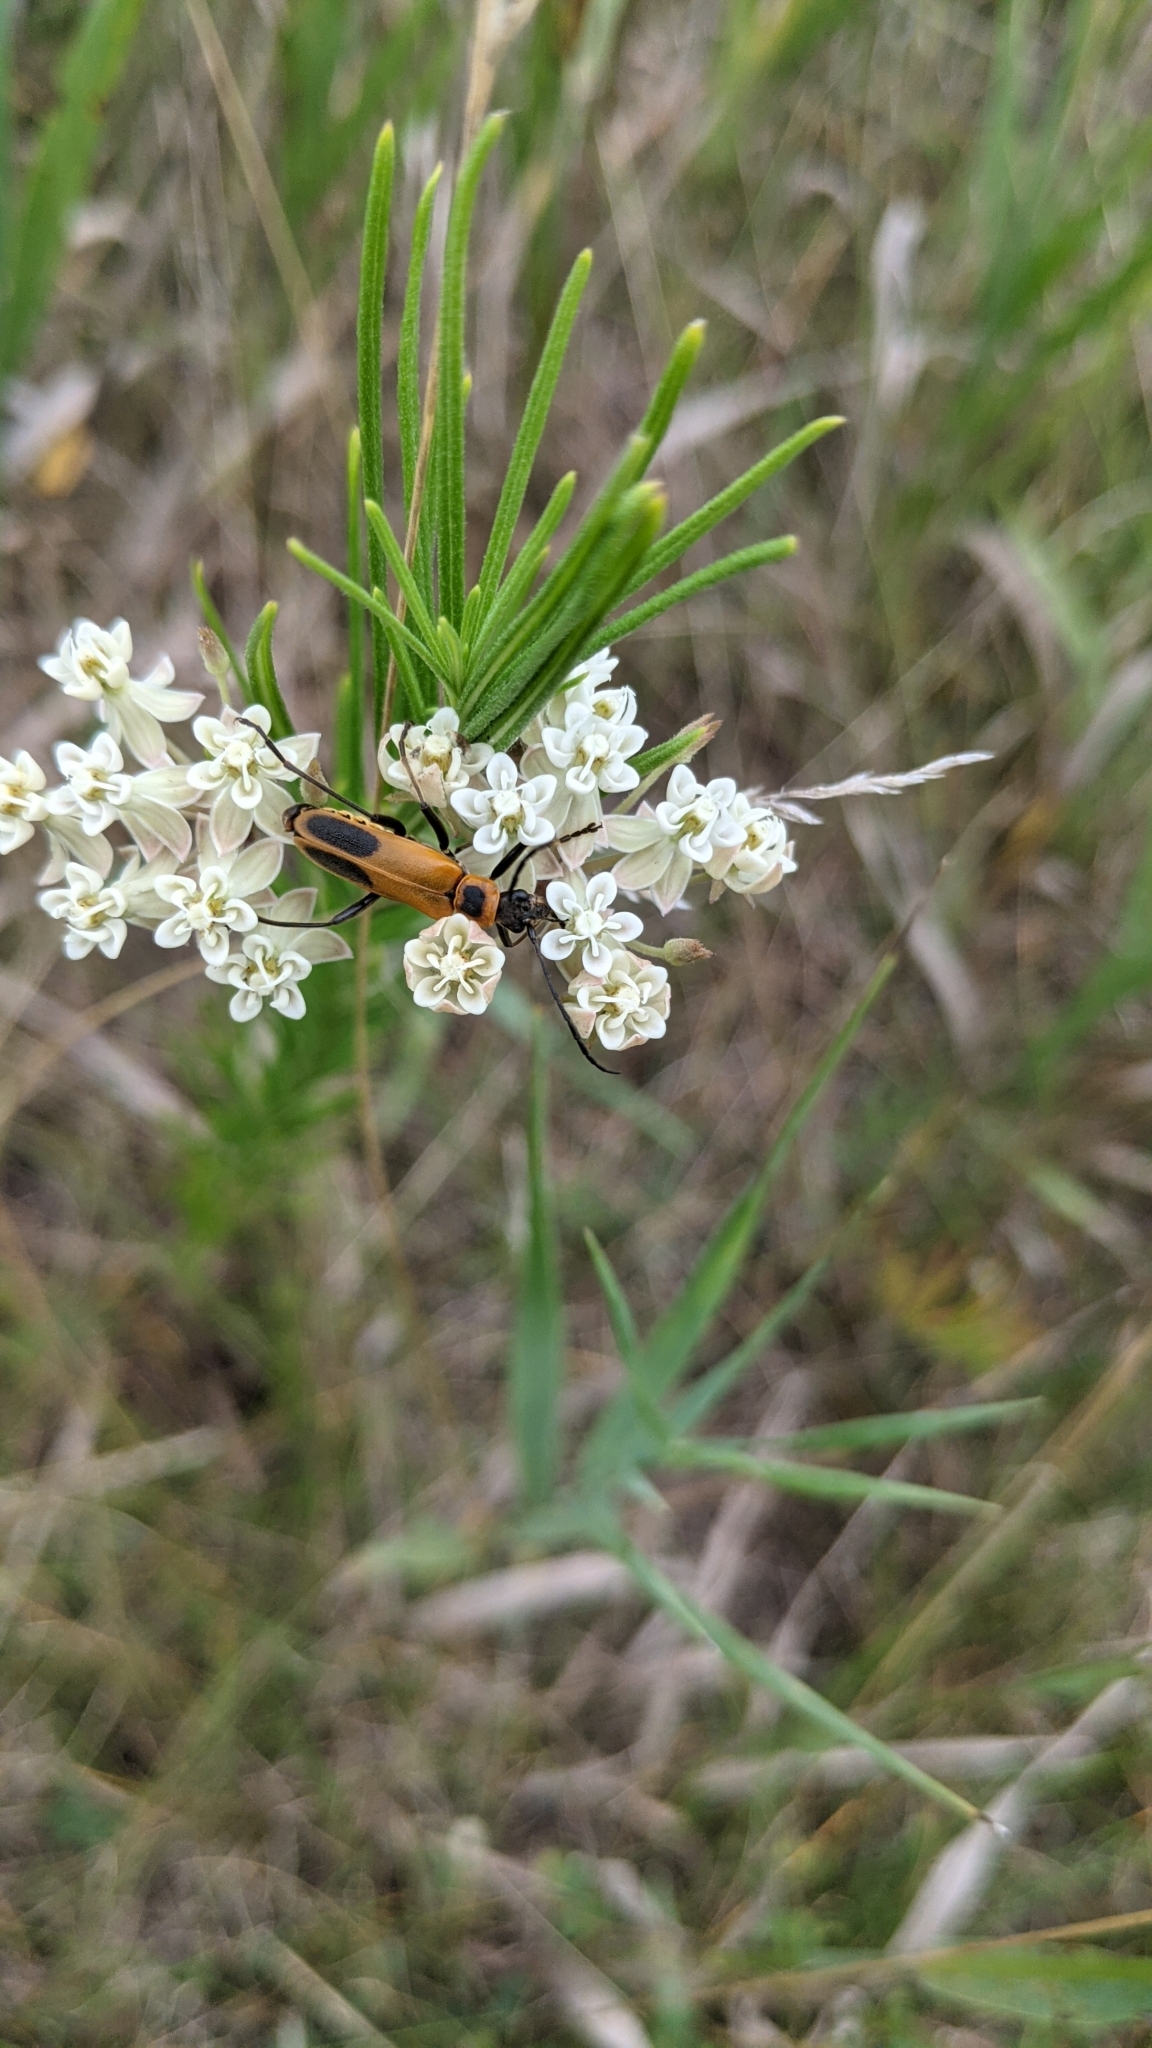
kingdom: Plantae
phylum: Tracheophyta
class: Magnoliopsida
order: Gentianales
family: Apocynaceae
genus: Asclepias
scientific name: Asclepias verticillata
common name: Eastern whorled milkweed
